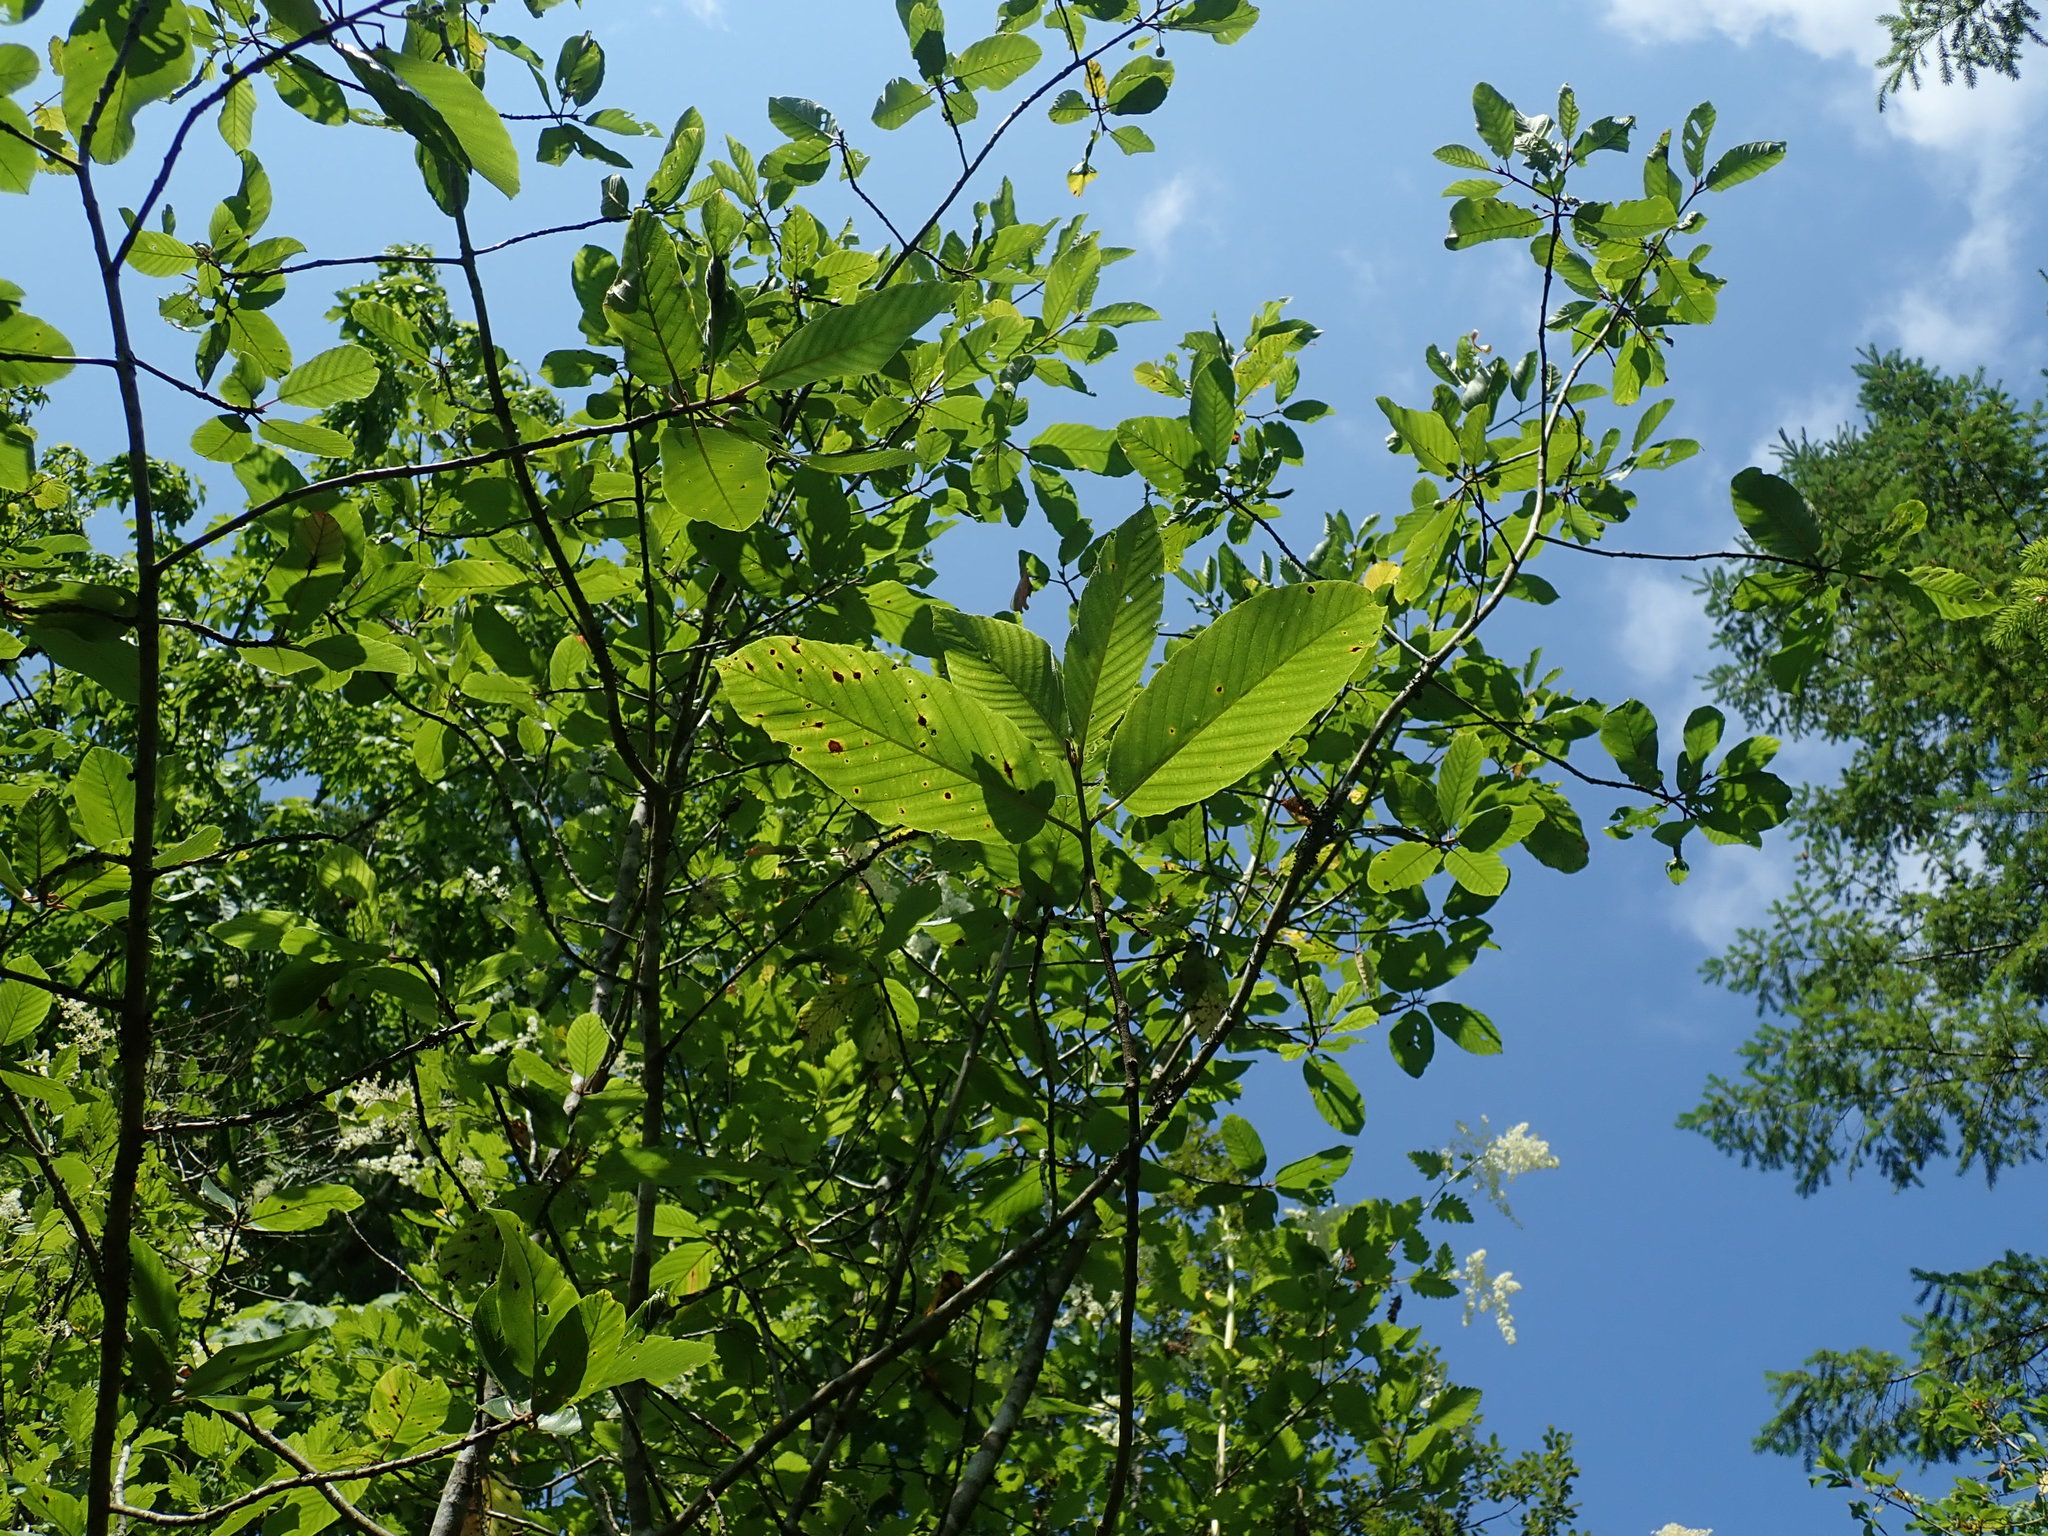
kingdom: Plantae
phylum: Tracheophyta
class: Magnoliopsida
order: Rosales
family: Rhamnaceae
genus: Frangula
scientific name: Frangula purshiana
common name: Cascara buckthorn
